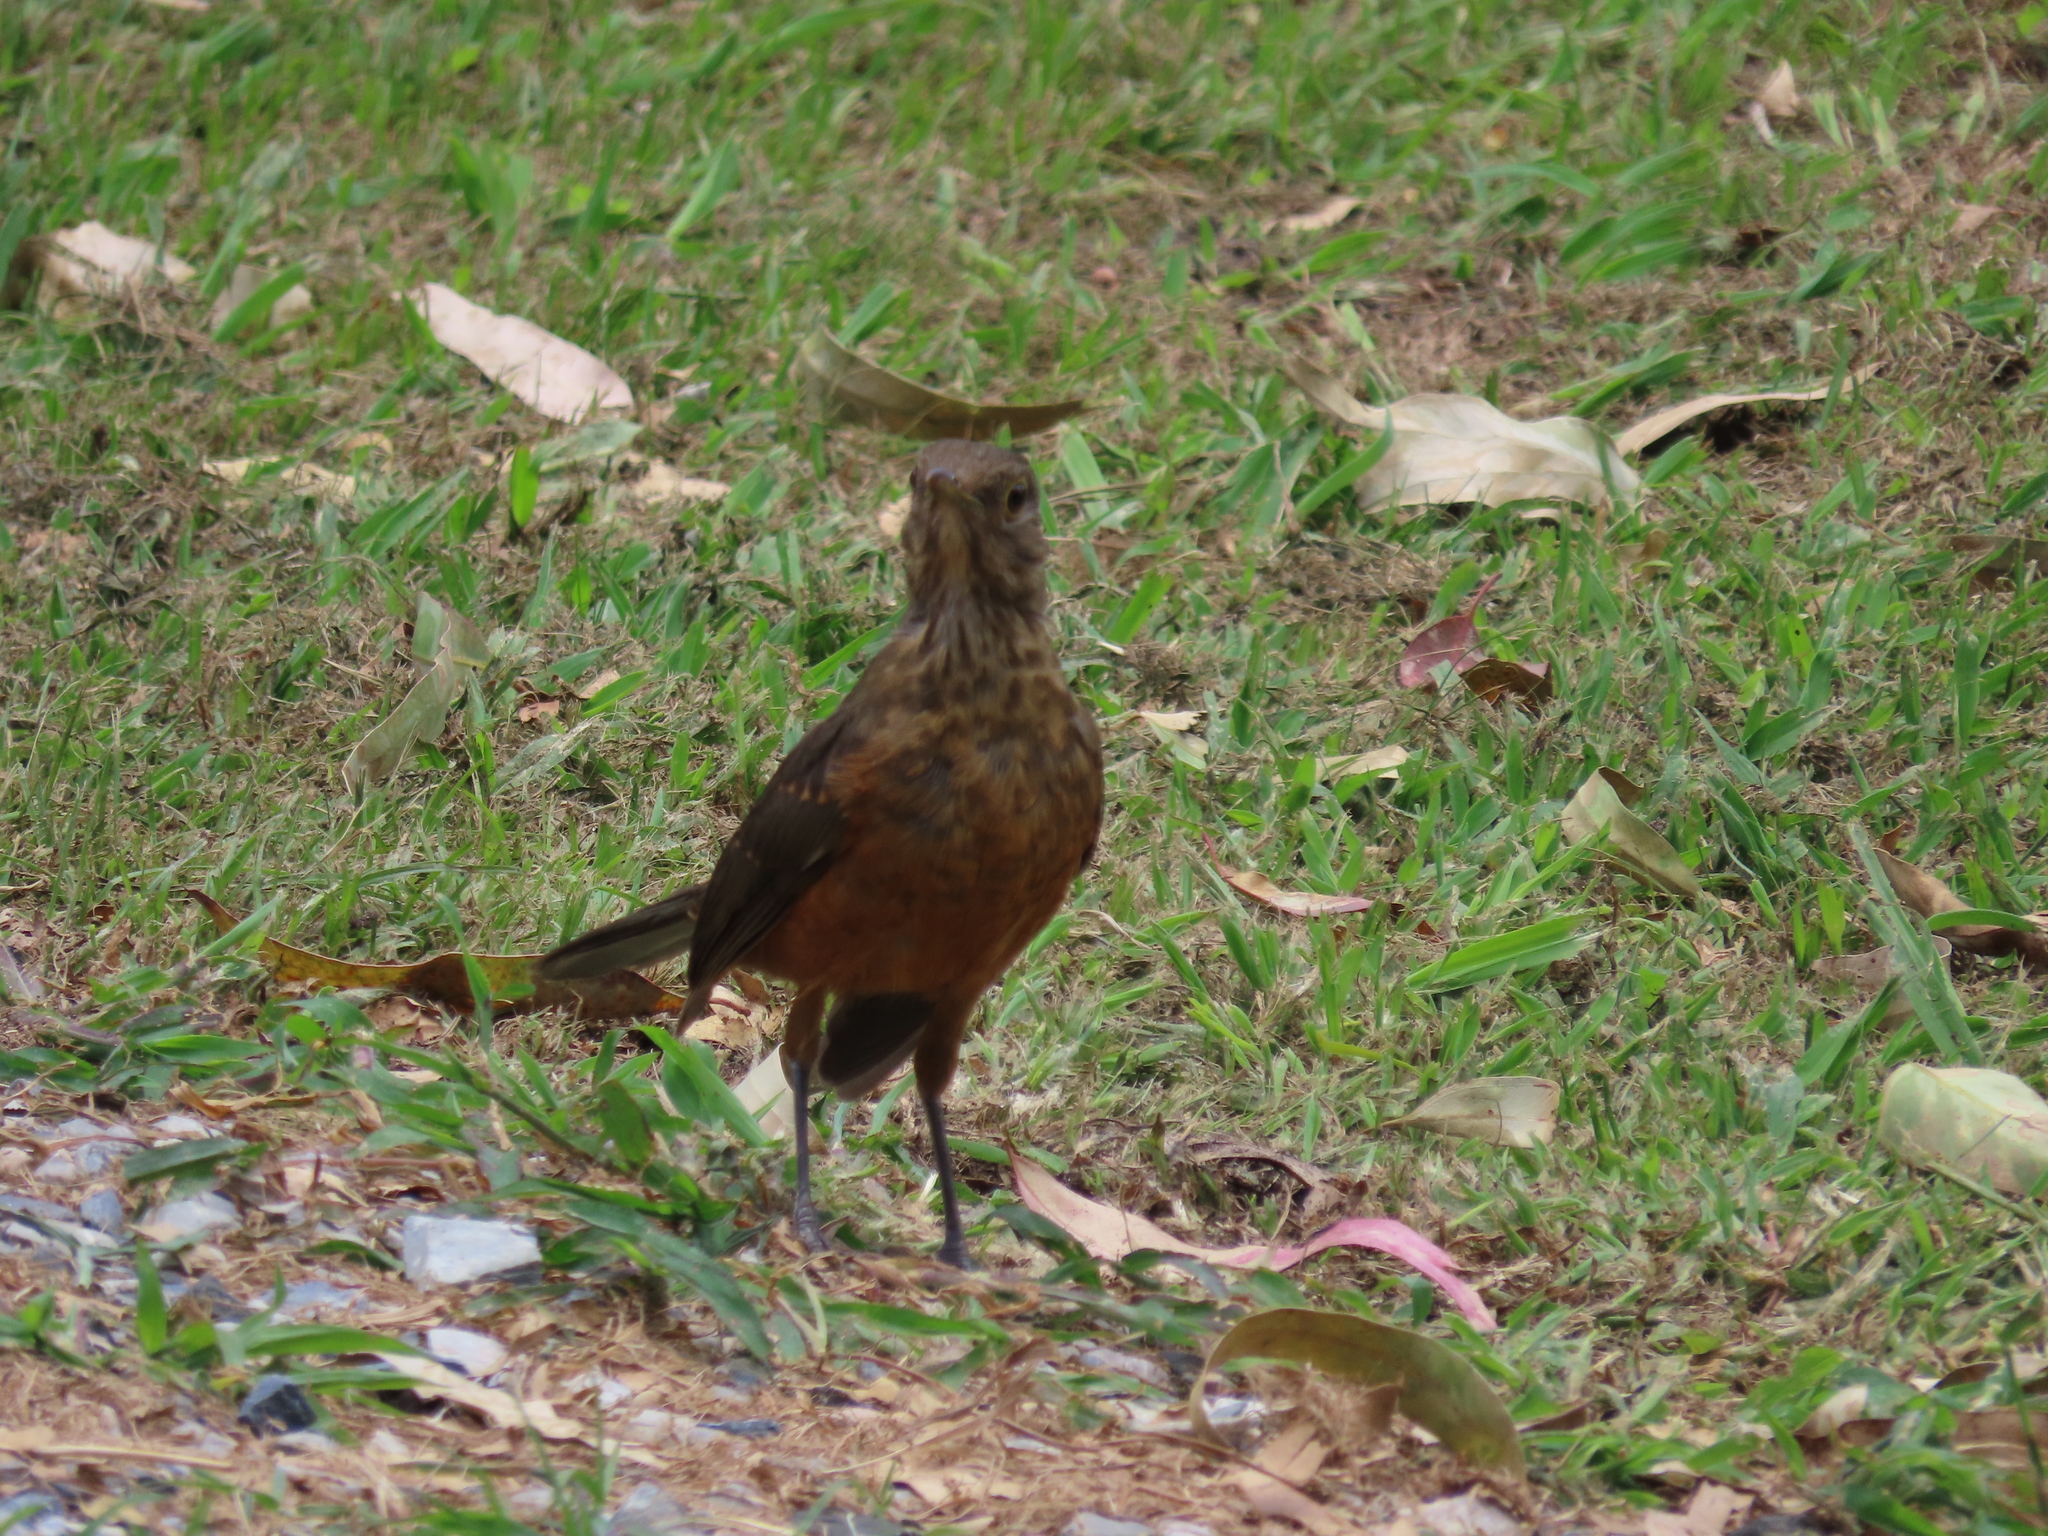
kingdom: Animalia
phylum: Chordata
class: Aves
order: Passeriformes
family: Turdidae
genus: Turdus
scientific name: Turdus rufiventris
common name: Rufous-bellied thrush
